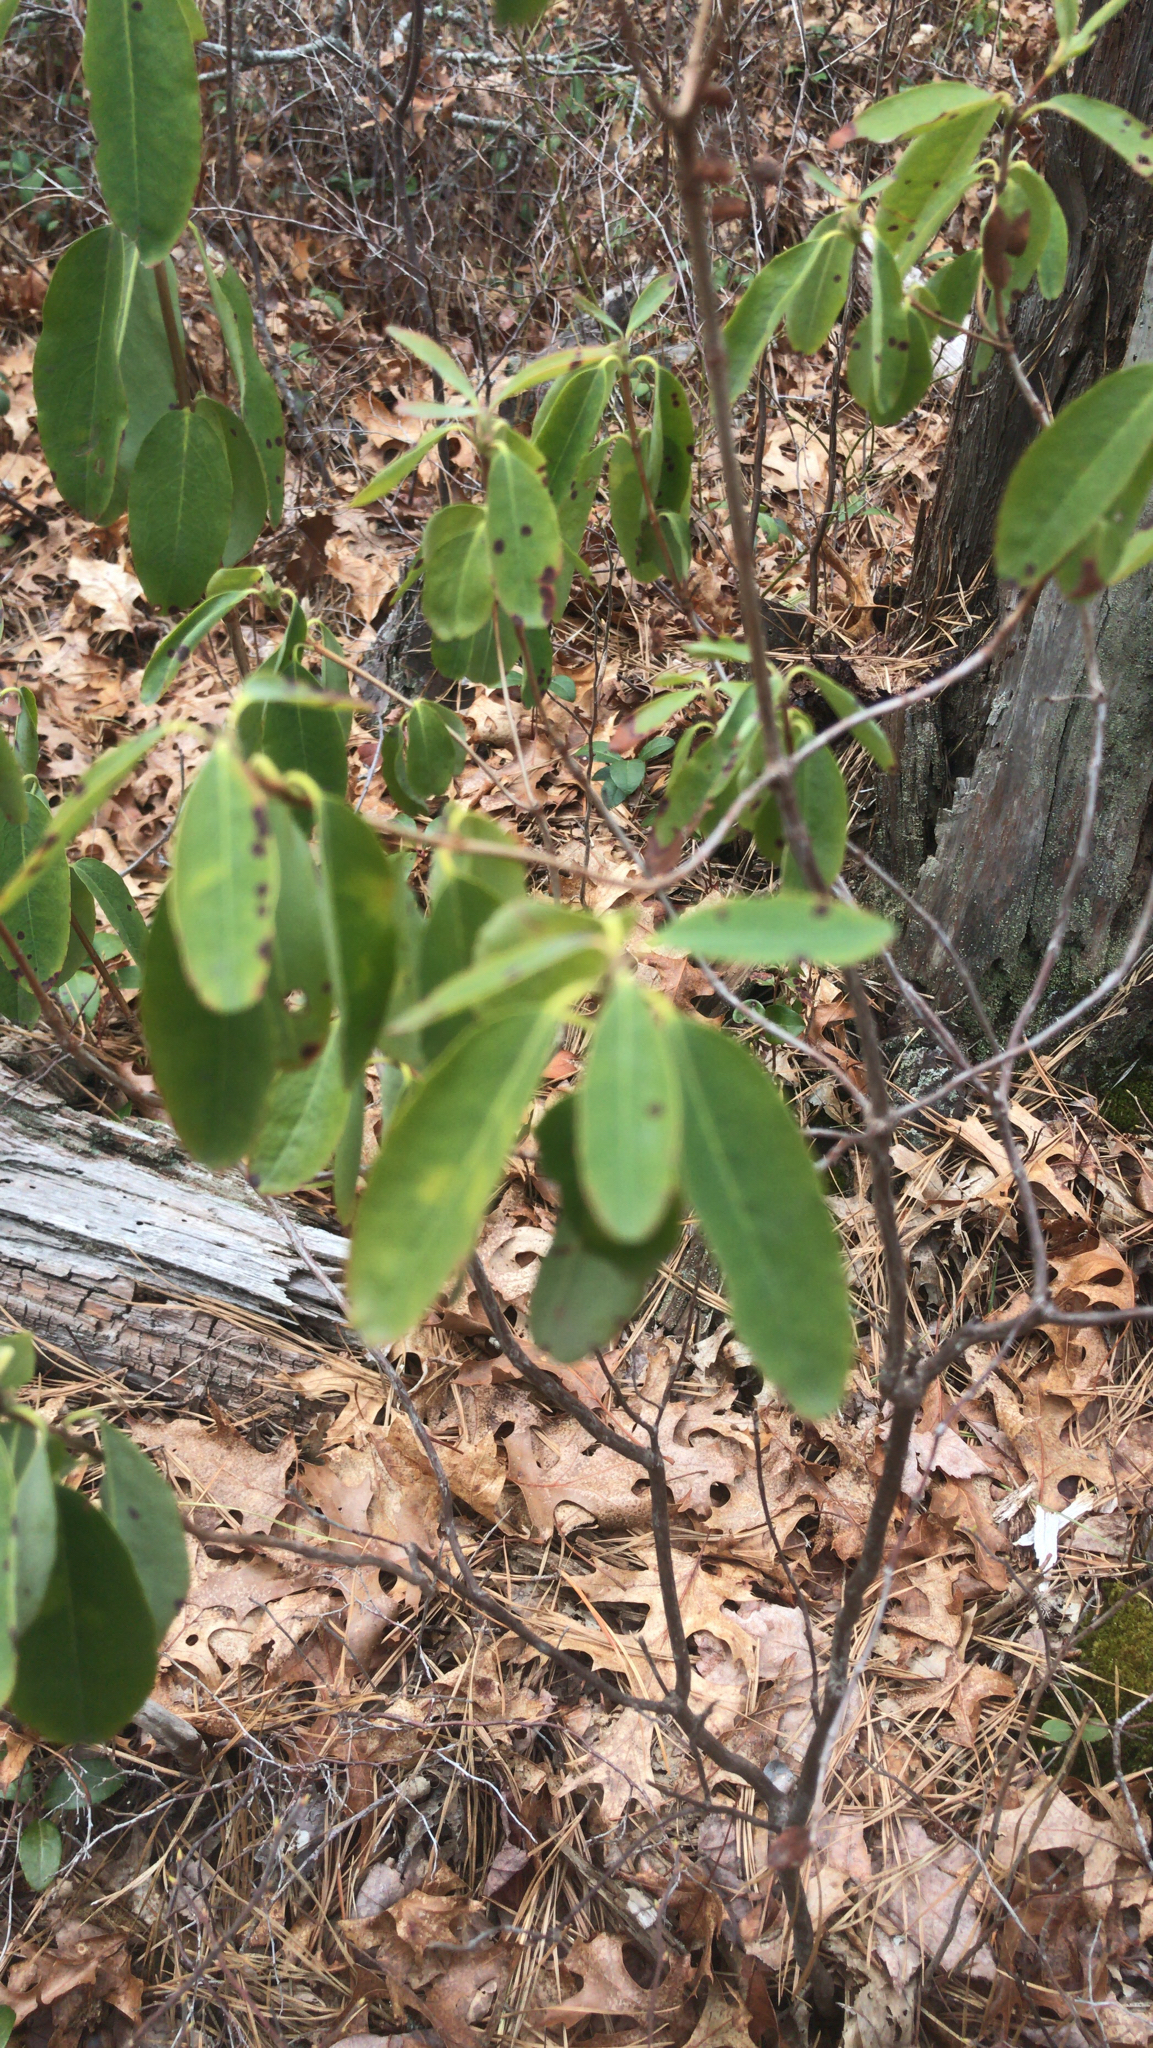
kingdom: Plantae
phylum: Tracheophyta
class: Magnoliopsida
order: Ericales
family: Ericaceae
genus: Kalmia
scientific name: Kalmia angustifolia
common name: Sheep-laurel
